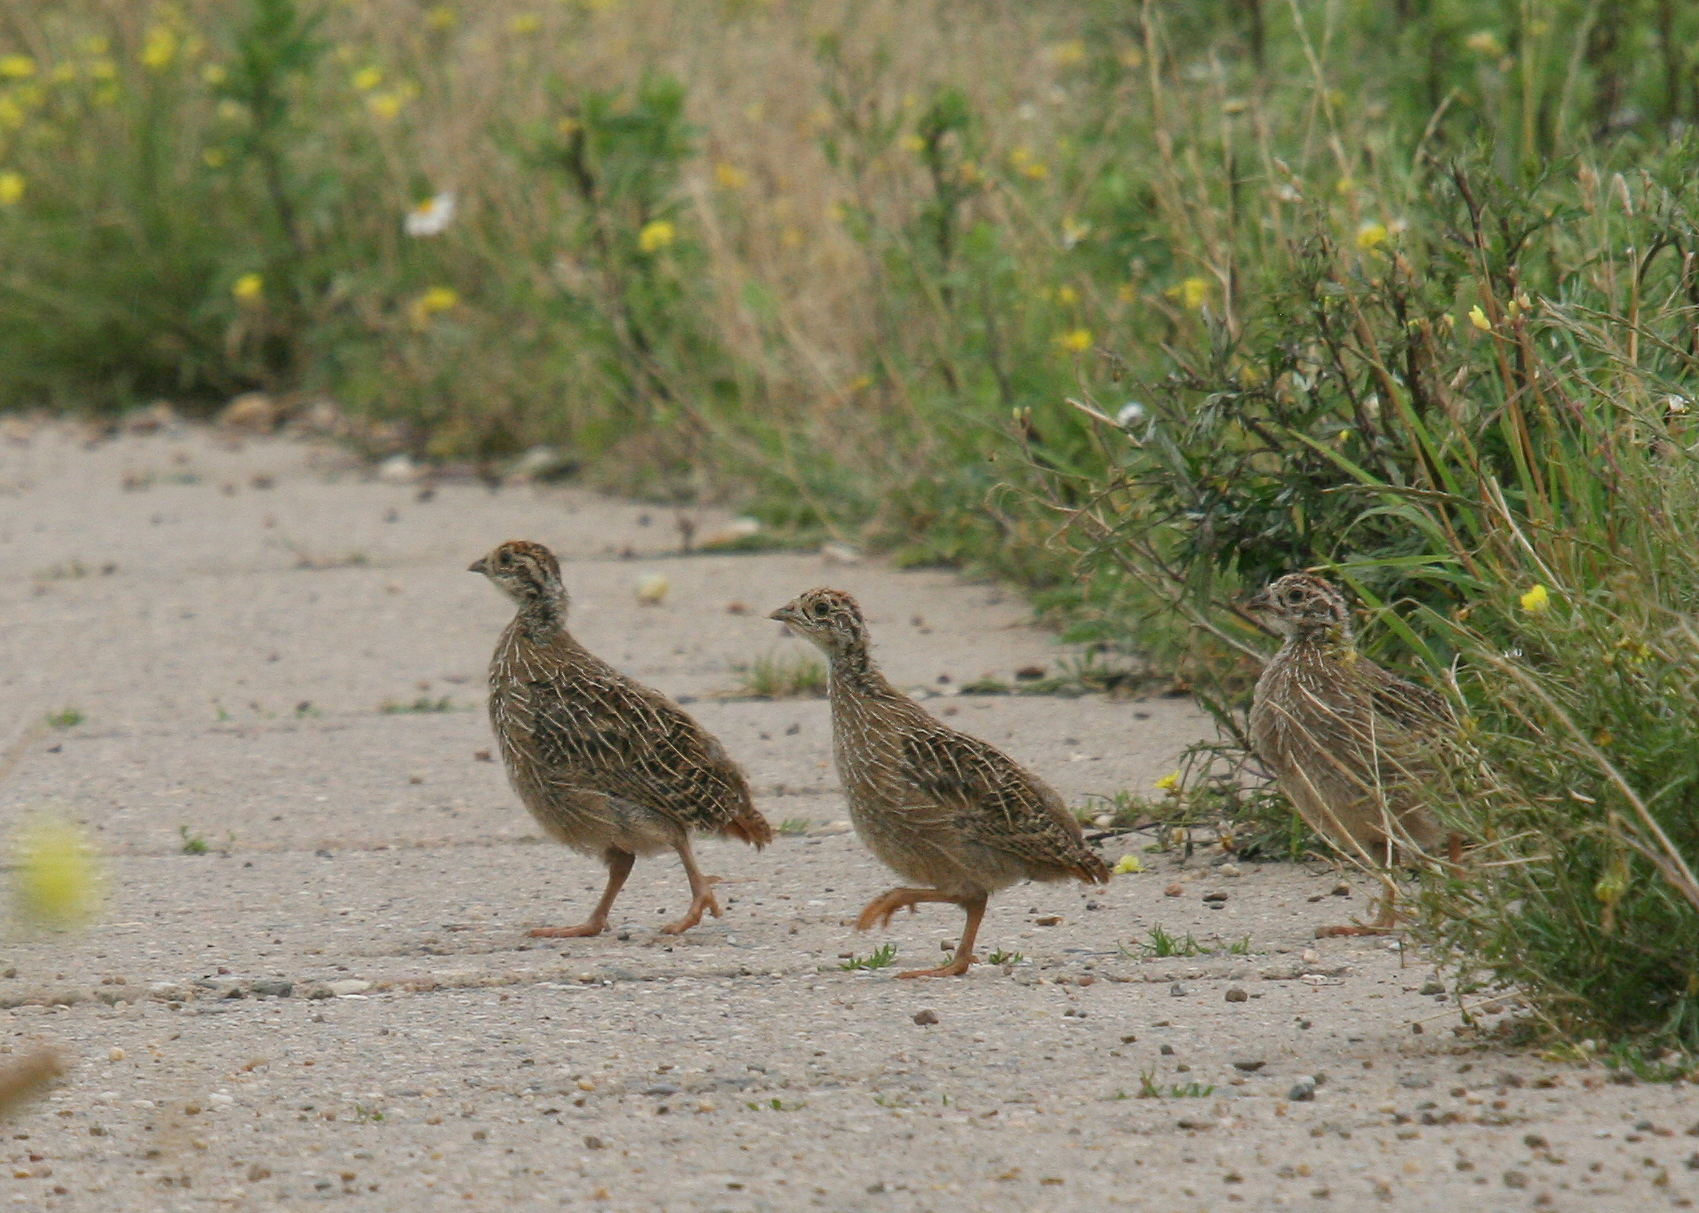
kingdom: Animalia
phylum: Chordata
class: Aves
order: Galliformes
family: Phasianidae
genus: Perdix
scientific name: Perdix perdix
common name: Grey partridge
